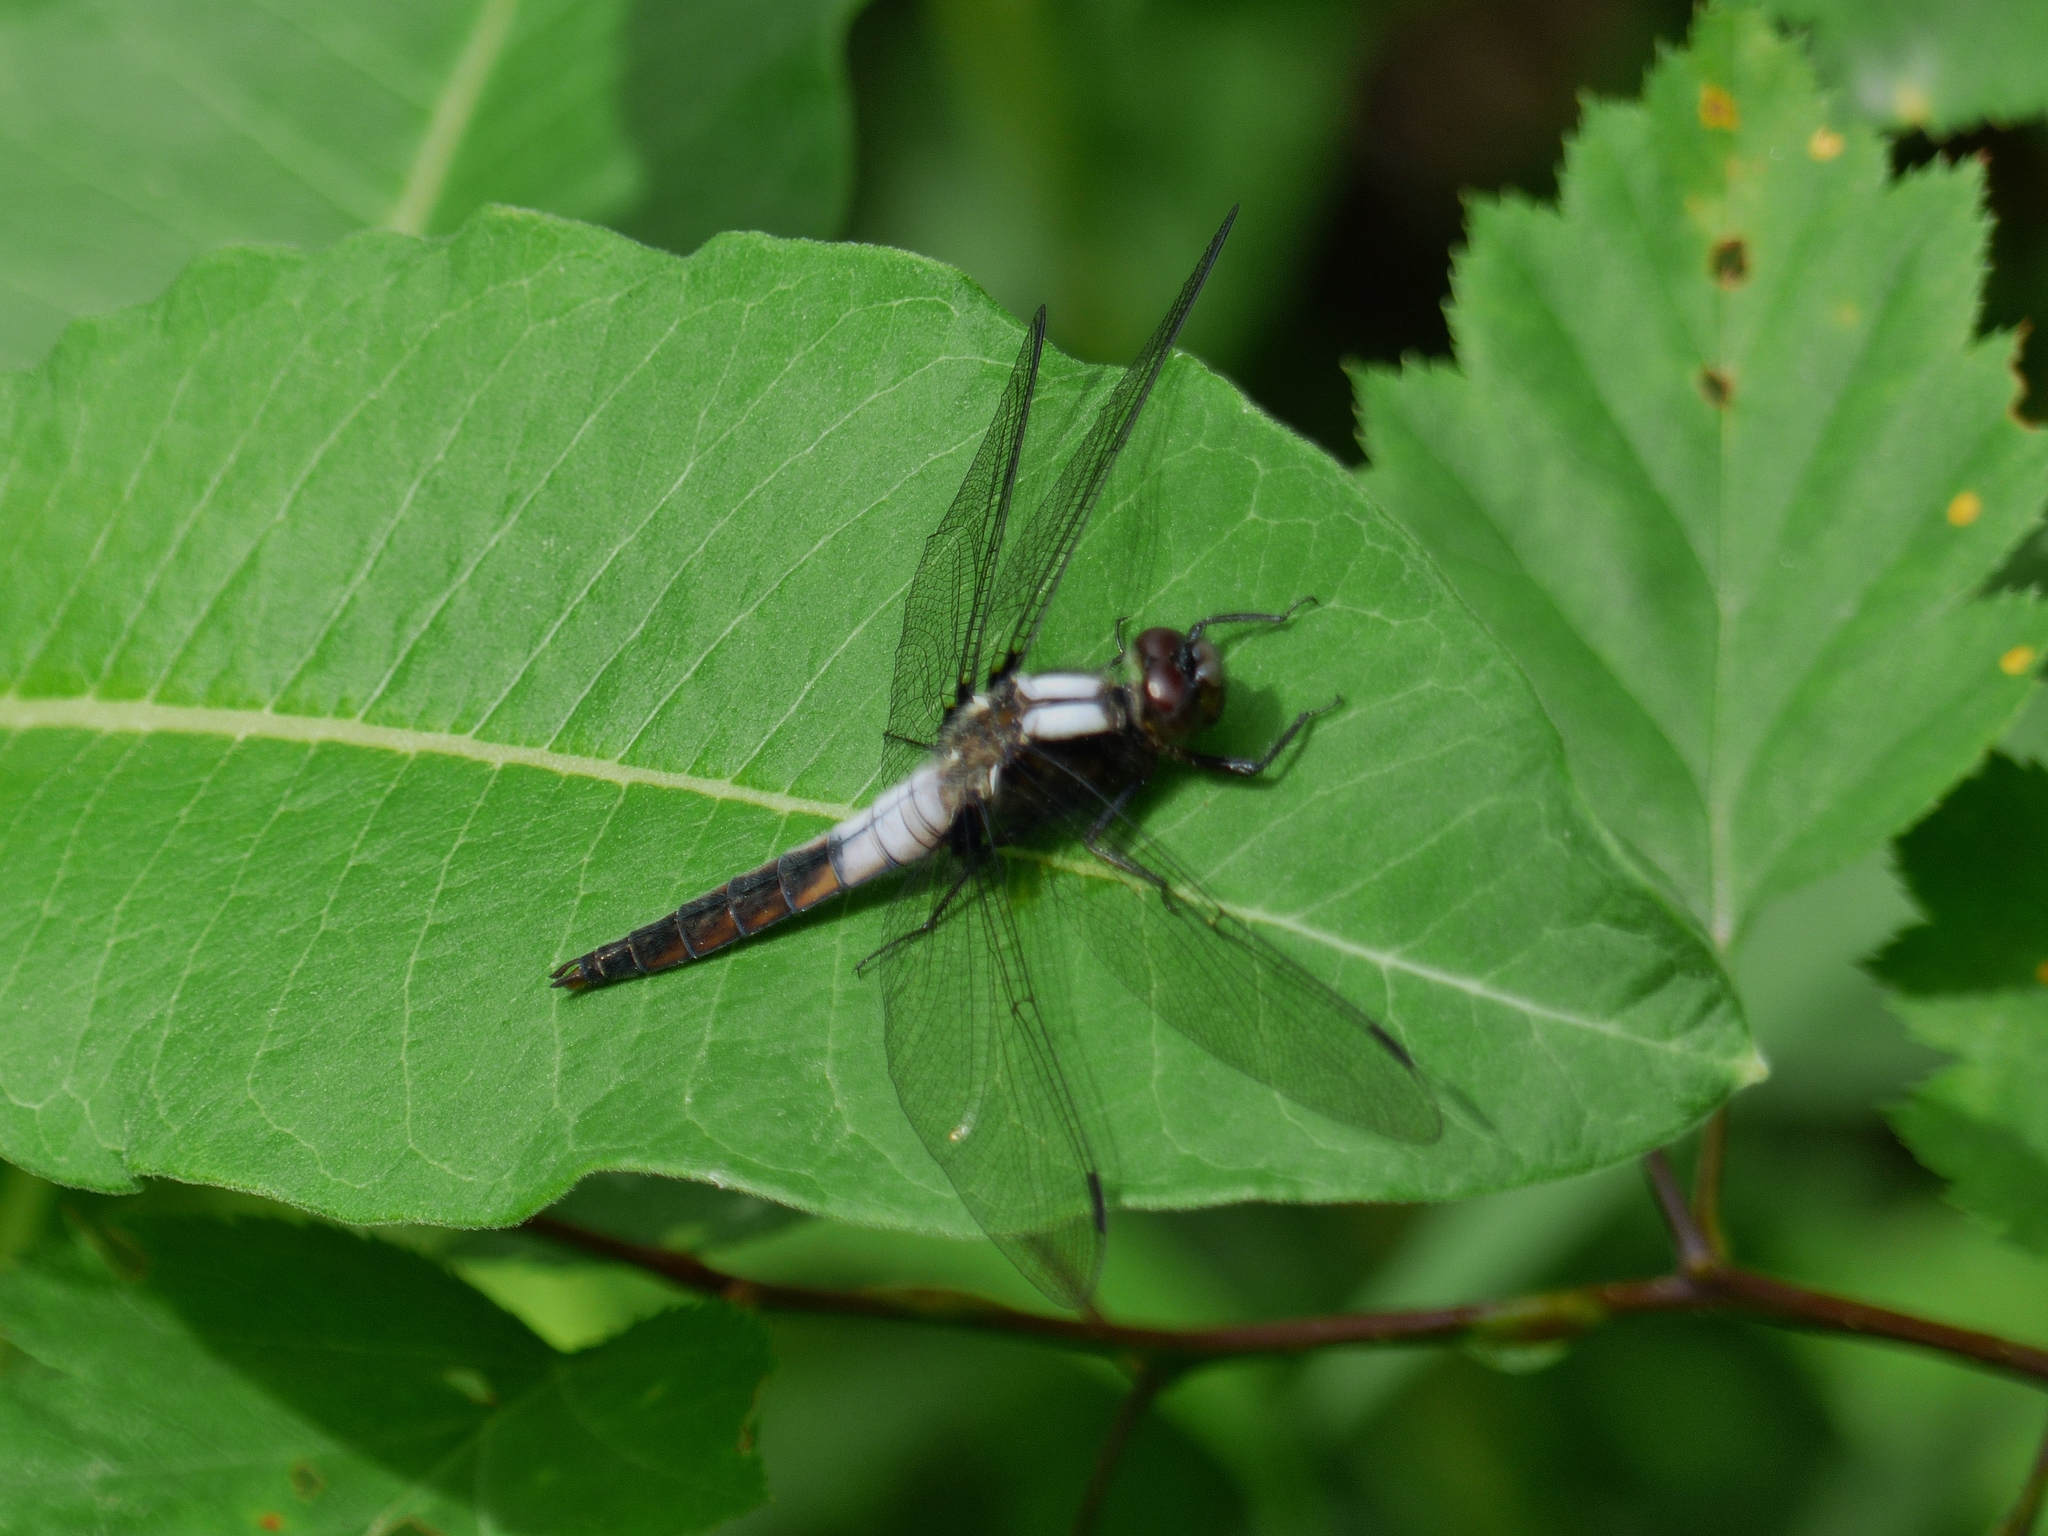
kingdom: Animalia
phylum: Arthropoda
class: Insecta
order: Odonata
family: Libellulidae
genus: Ladona
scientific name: Ladona julia
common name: Chalk-fronted corporal
